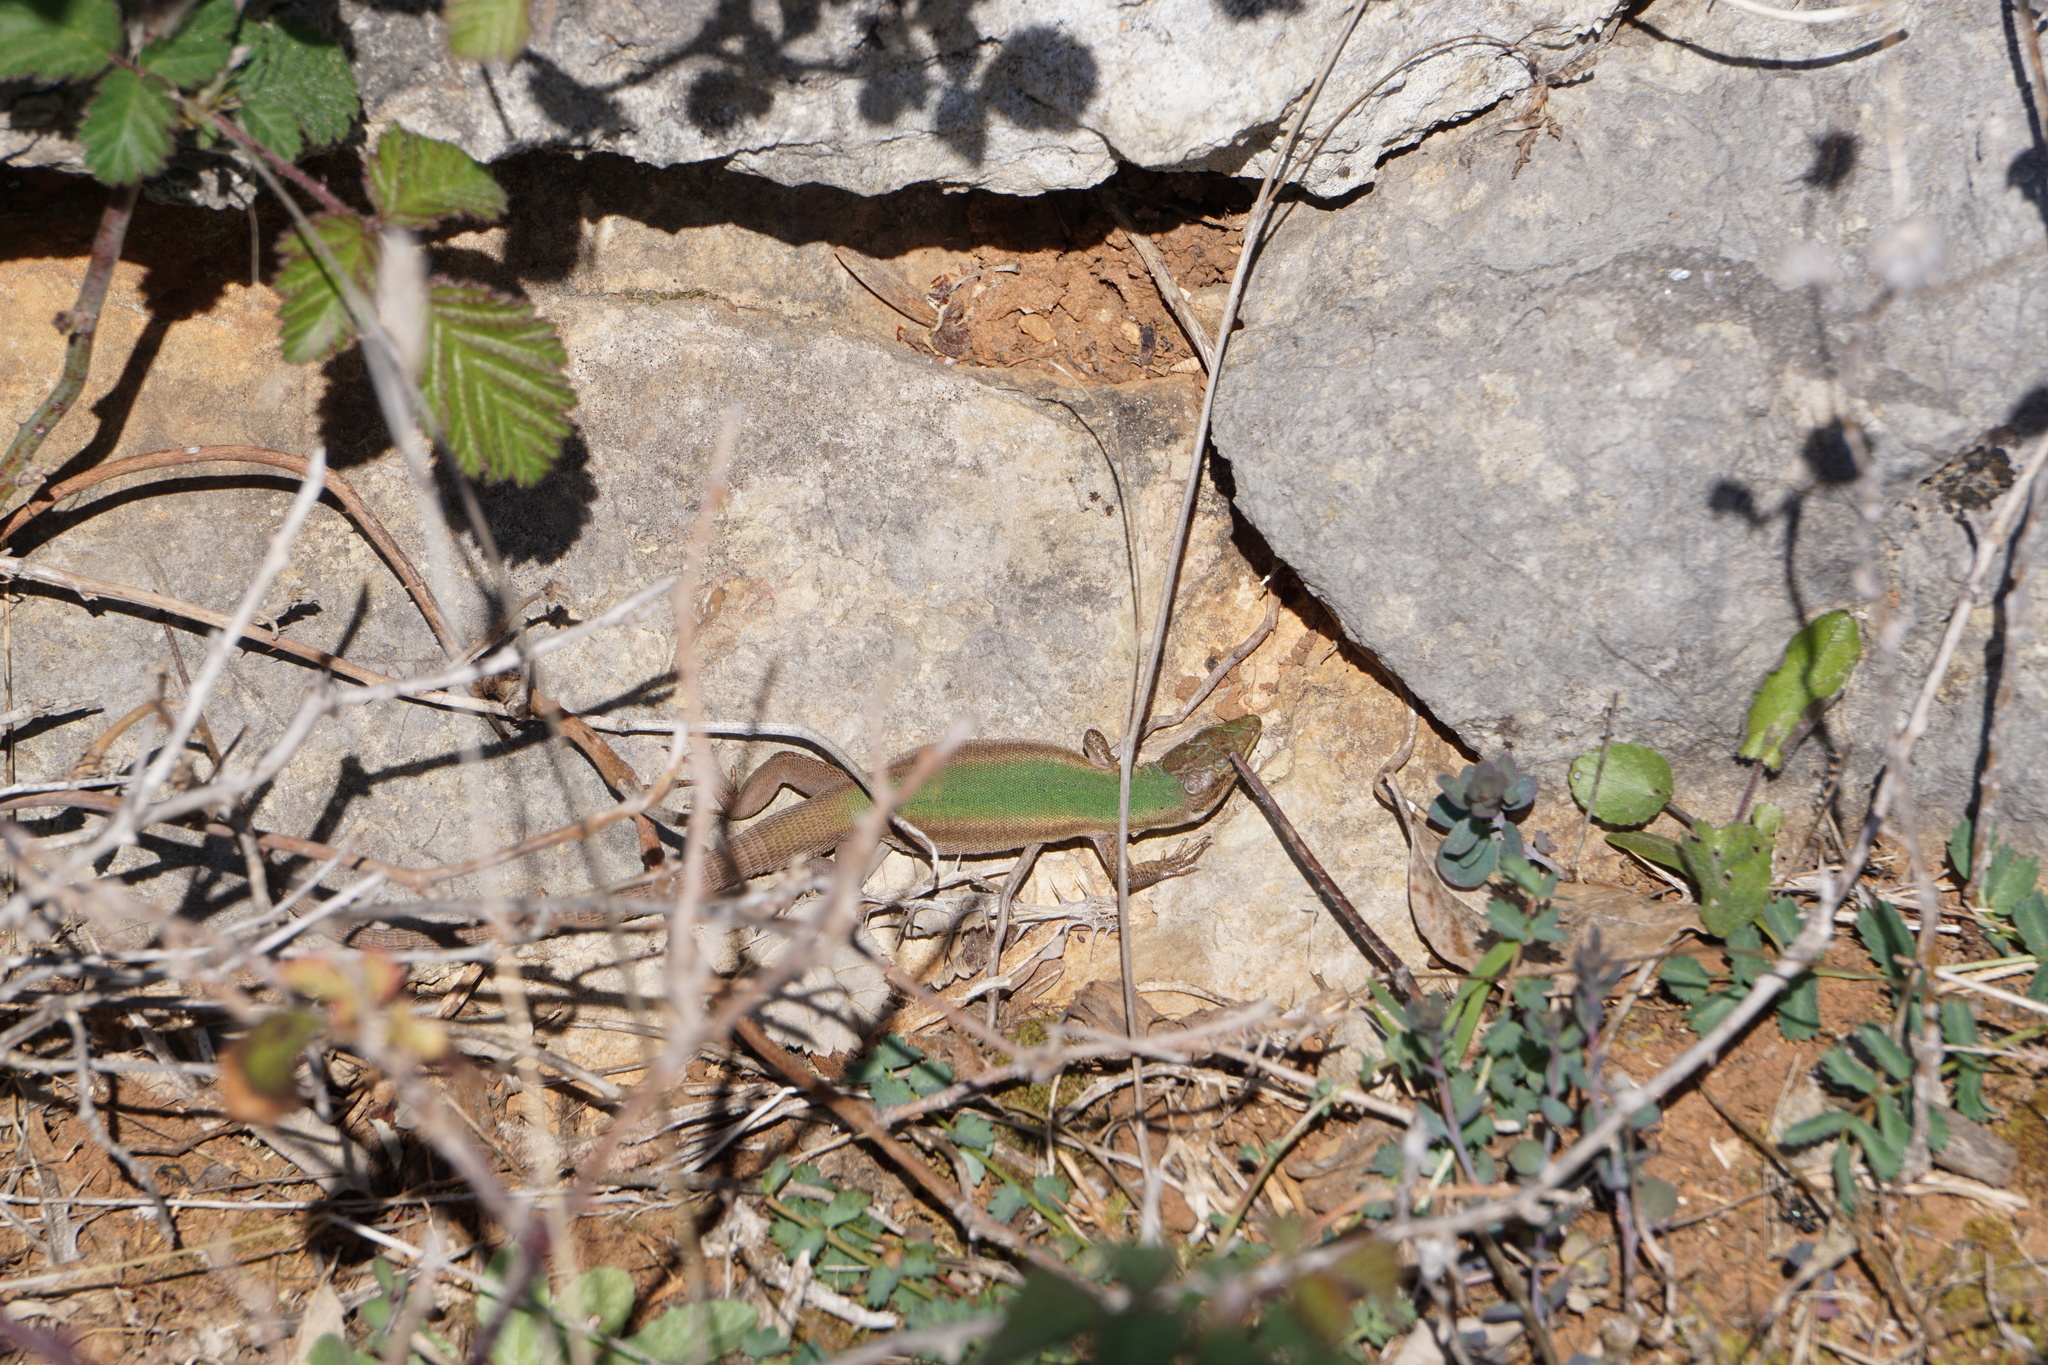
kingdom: Animalia
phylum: Chordata
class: Squamata
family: Lacertidae
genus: Podarcis
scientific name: Podarcis melisellensis
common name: Dalmatian wall lizard
